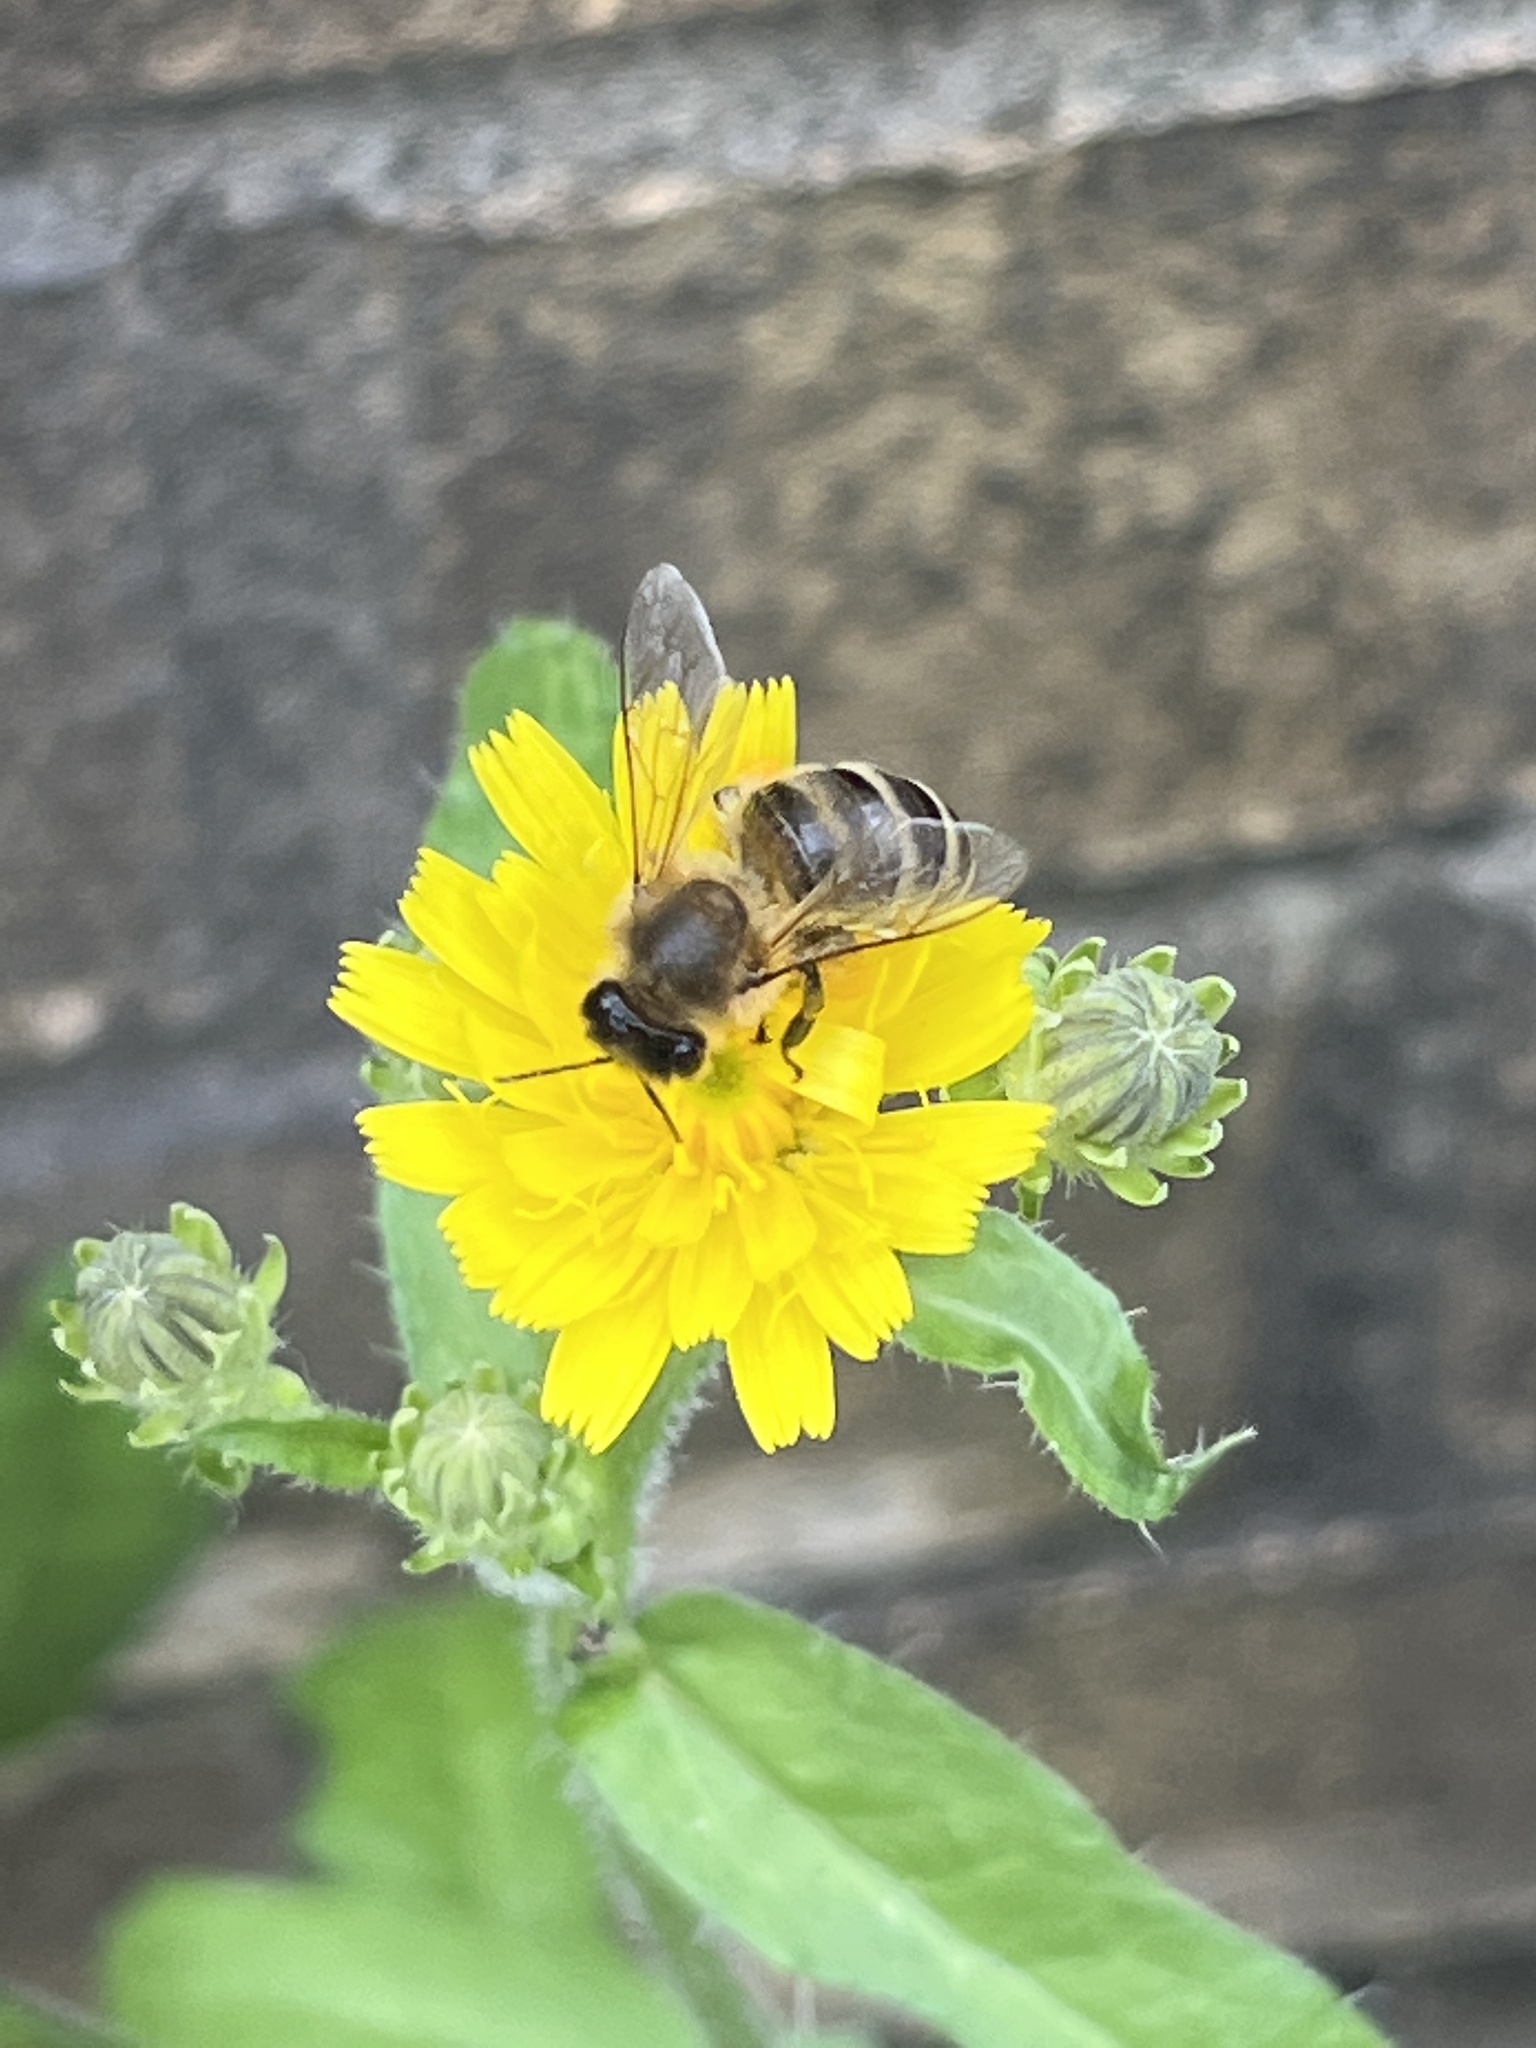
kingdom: Animalia
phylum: Arthropoda
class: Insecta
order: Hymenoptera
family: Apidae
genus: Apis
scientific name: Apis mellifera
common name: Honey bee
